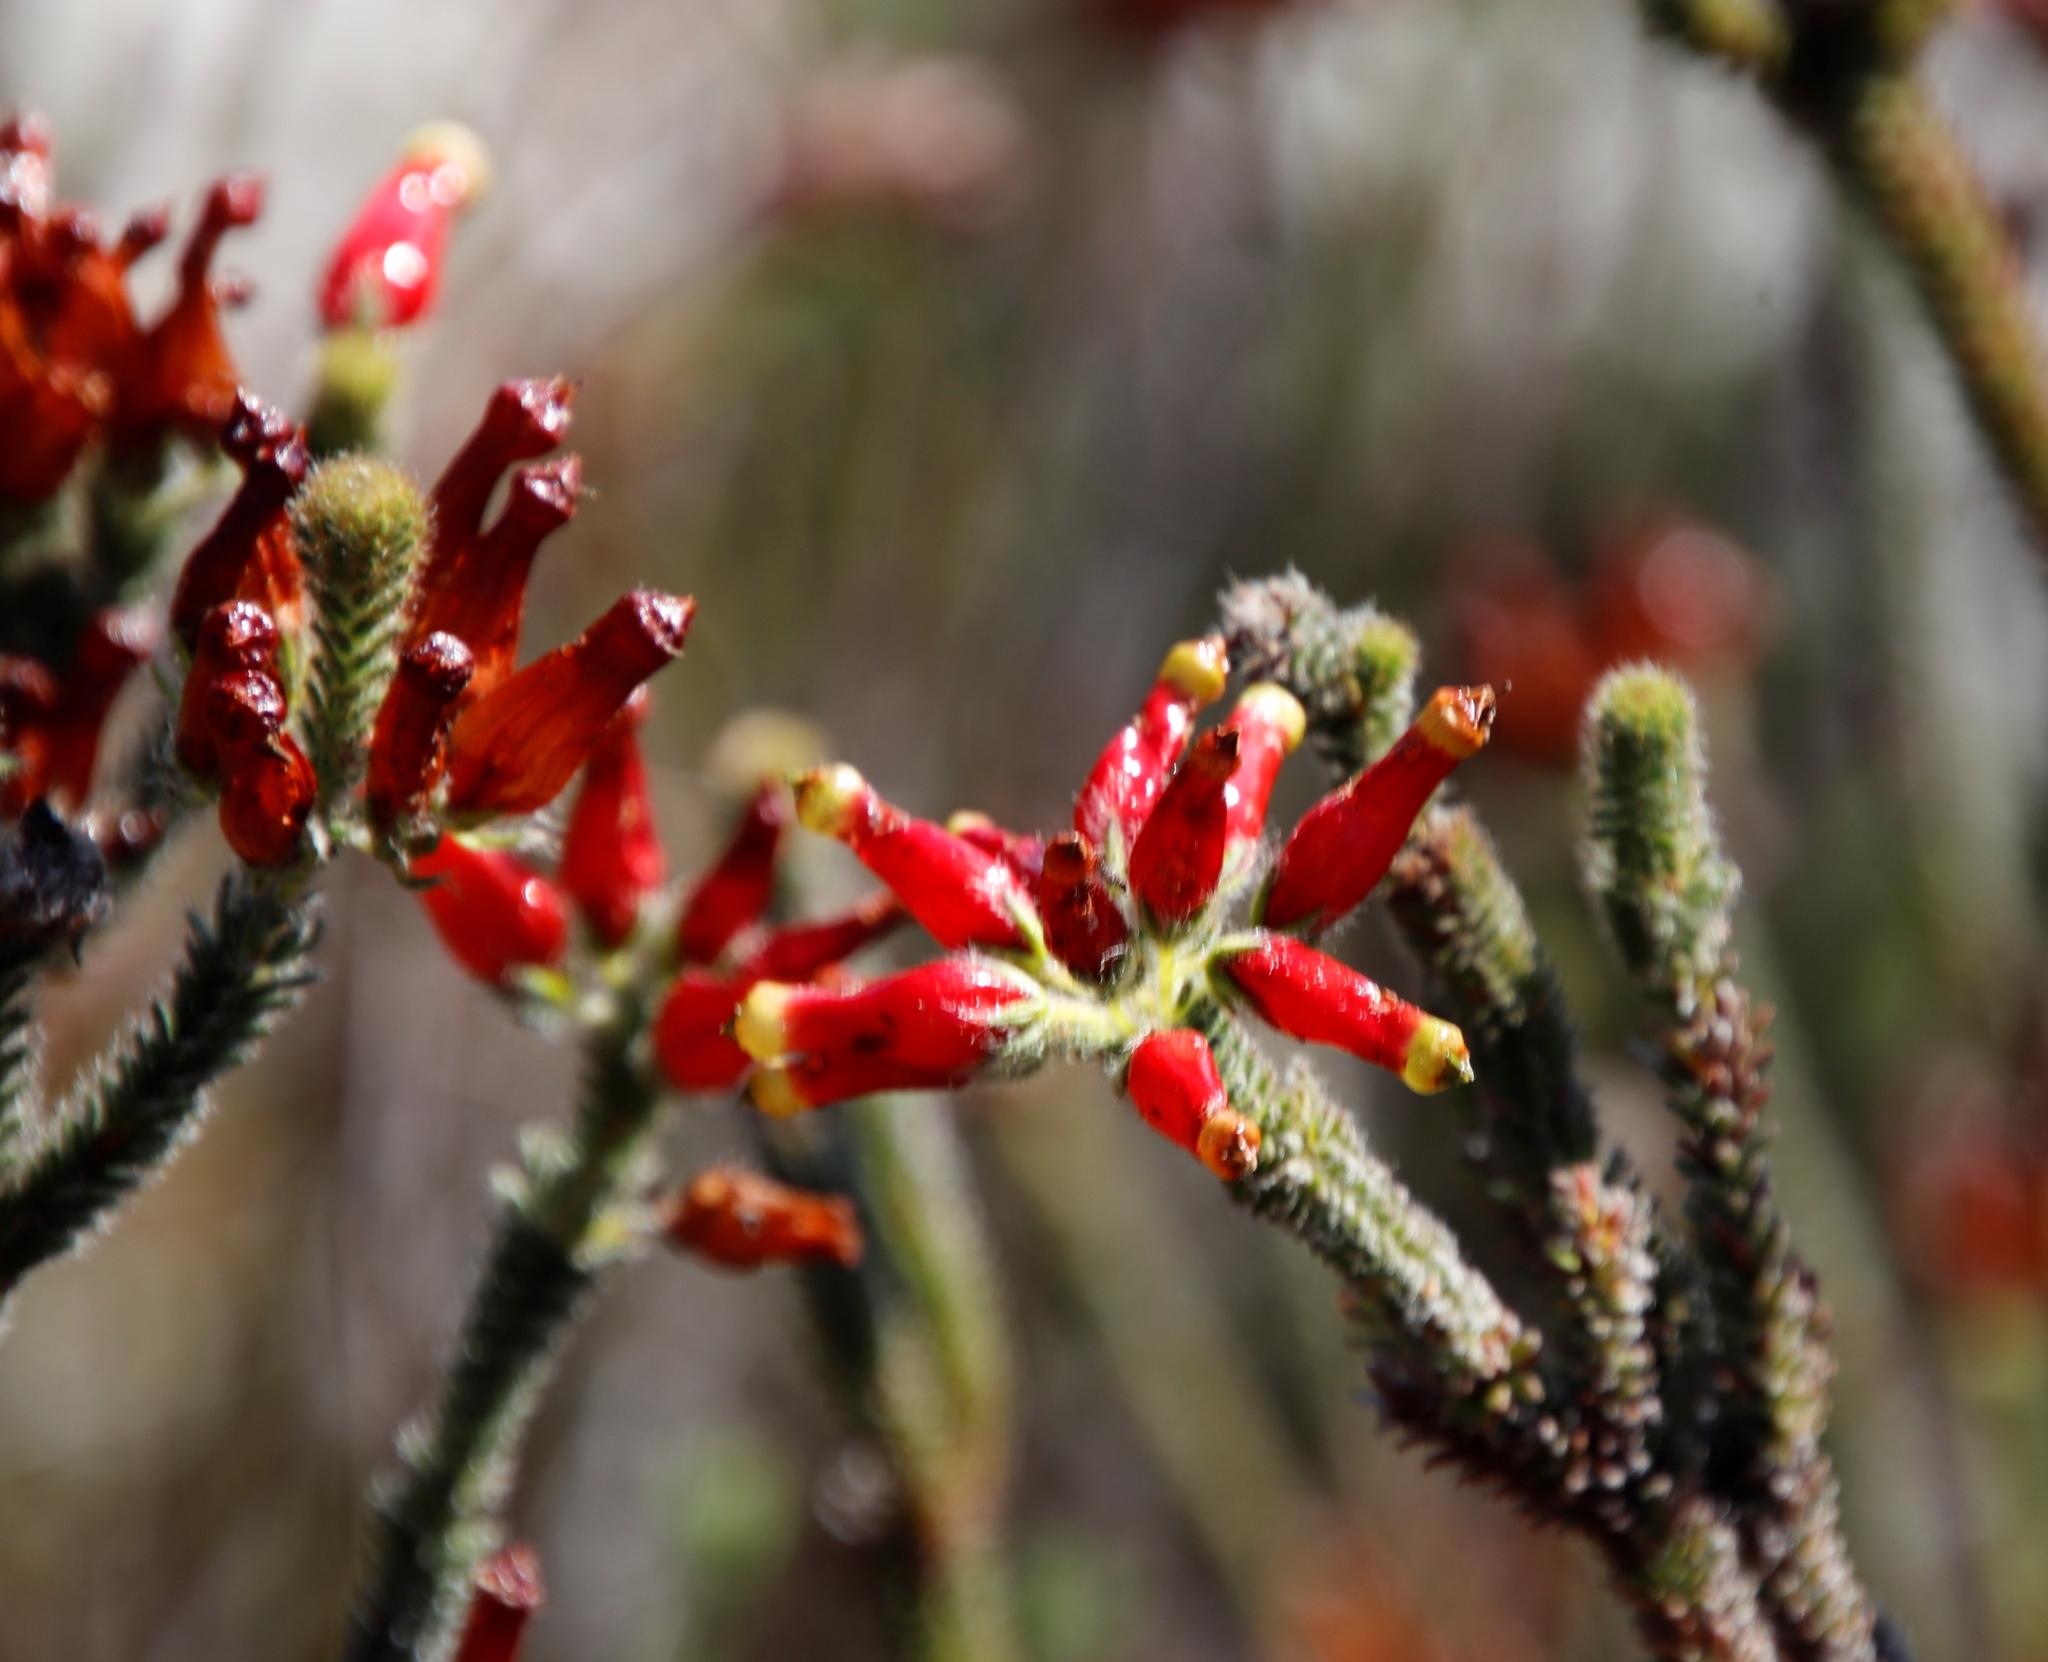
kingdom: Plantae
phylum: Tracheophyta
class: Magnoliopsida
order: Ericales
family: Ericaceae
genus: Erica
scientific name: Erica massonii
